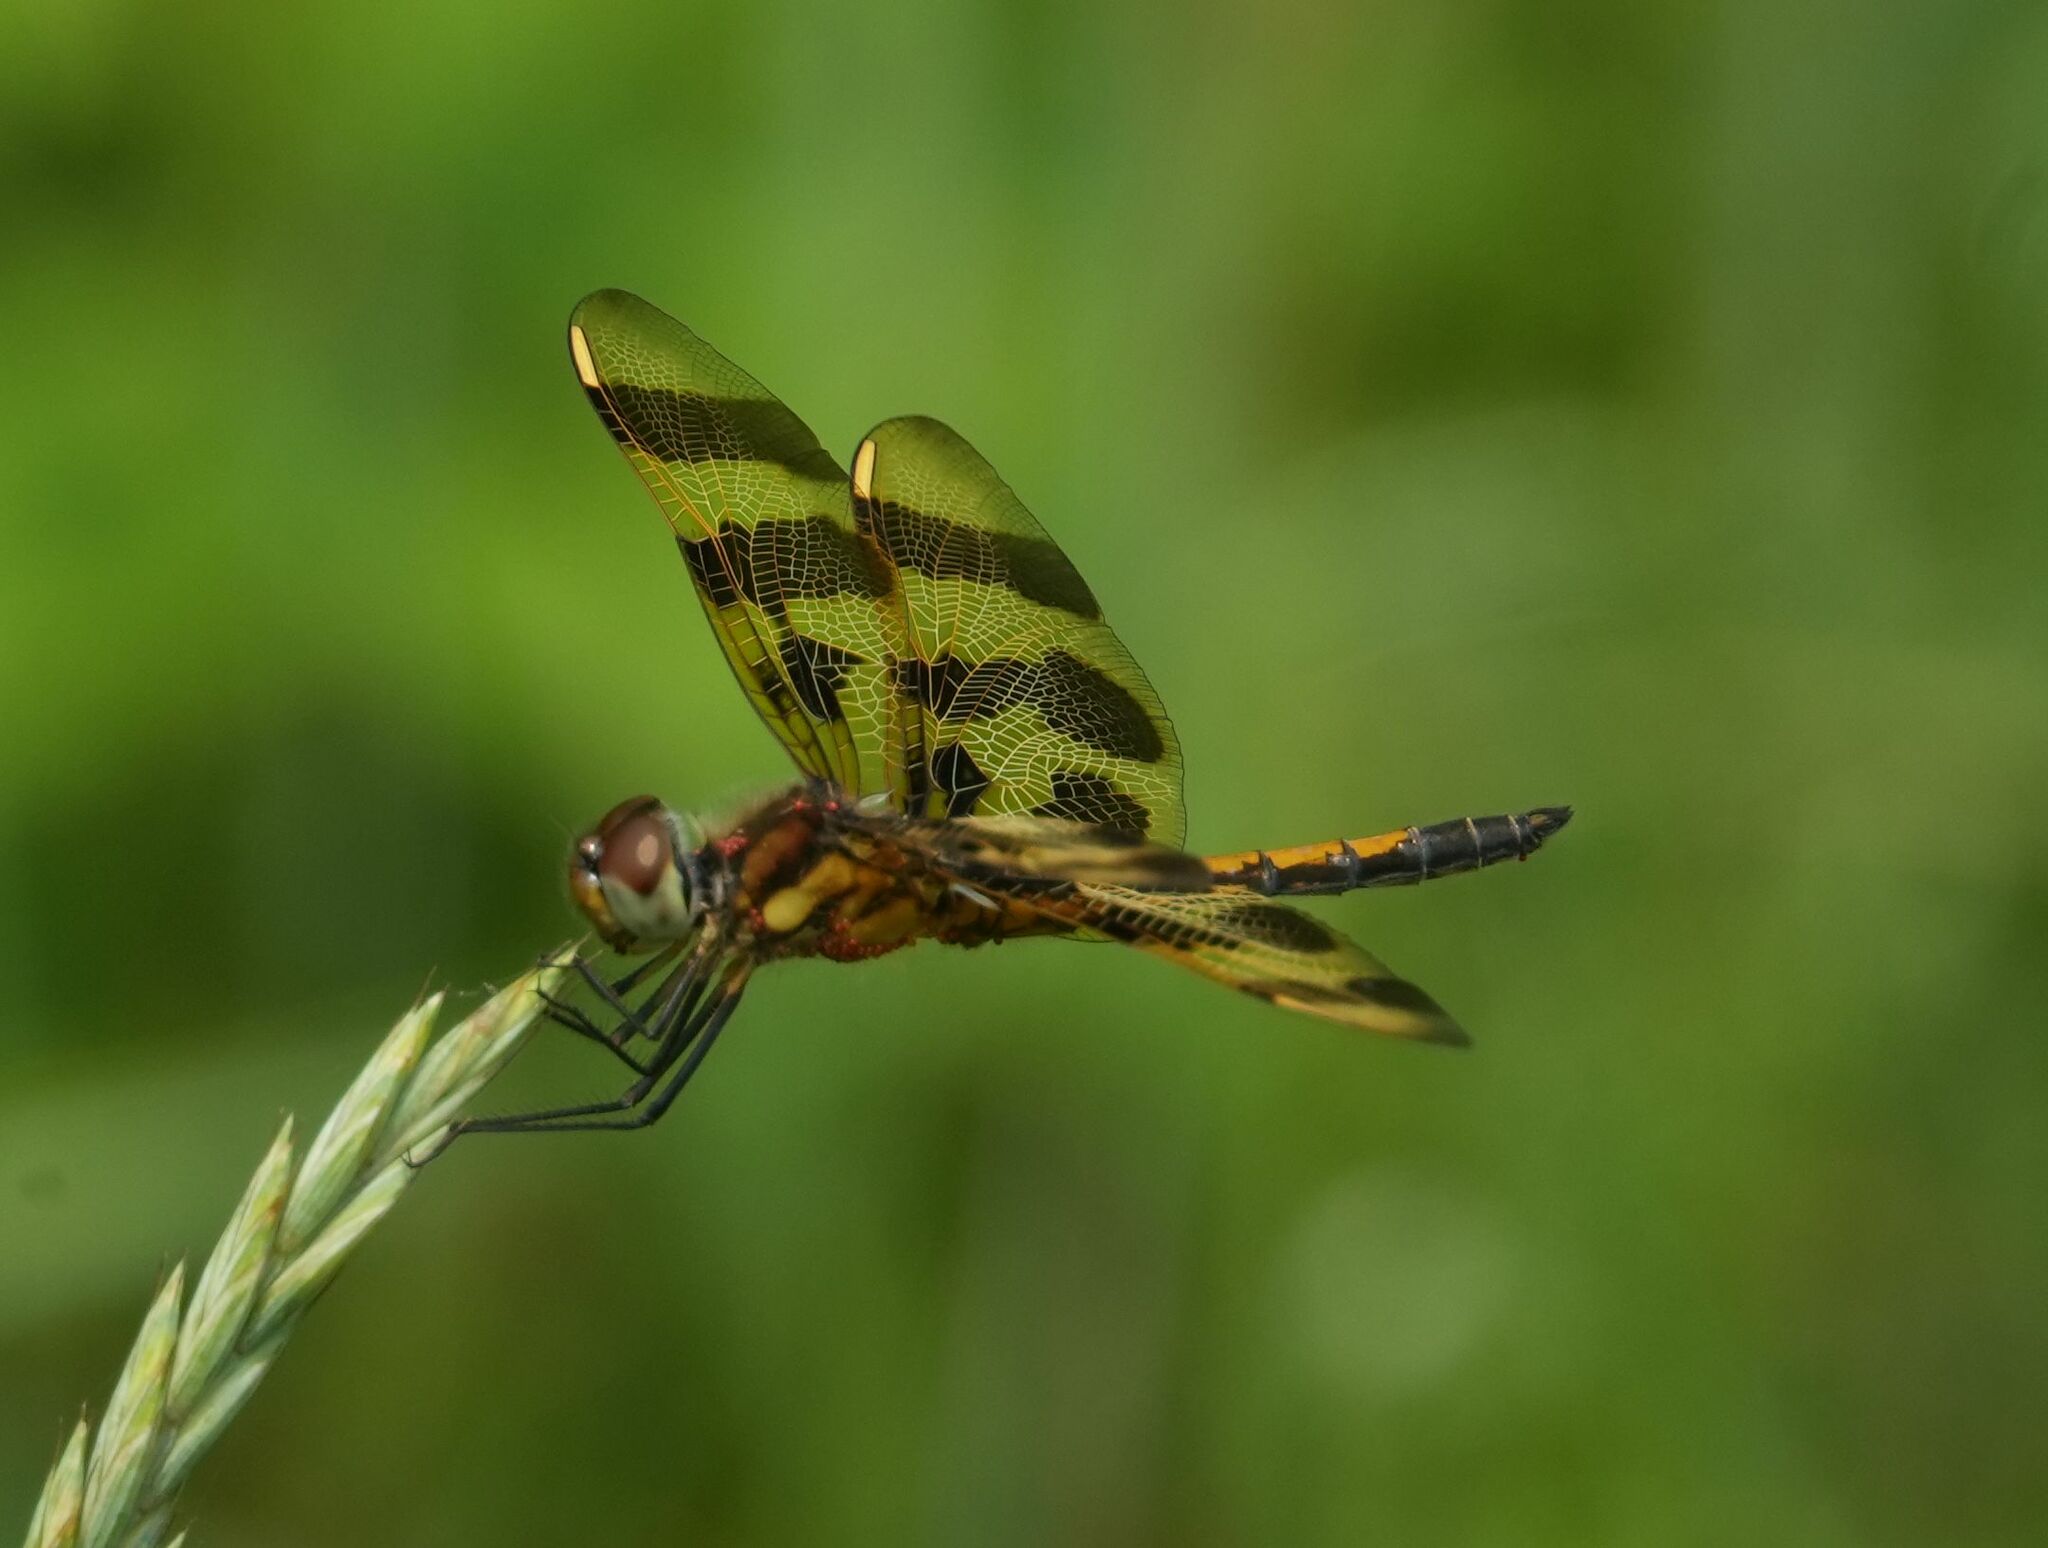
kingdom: Animalia
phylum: Arthropoda
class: Insecta
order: Odonata
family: Libellulidae
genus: Celithemis
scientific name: Celithemis eponina
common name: Halloween pennant
